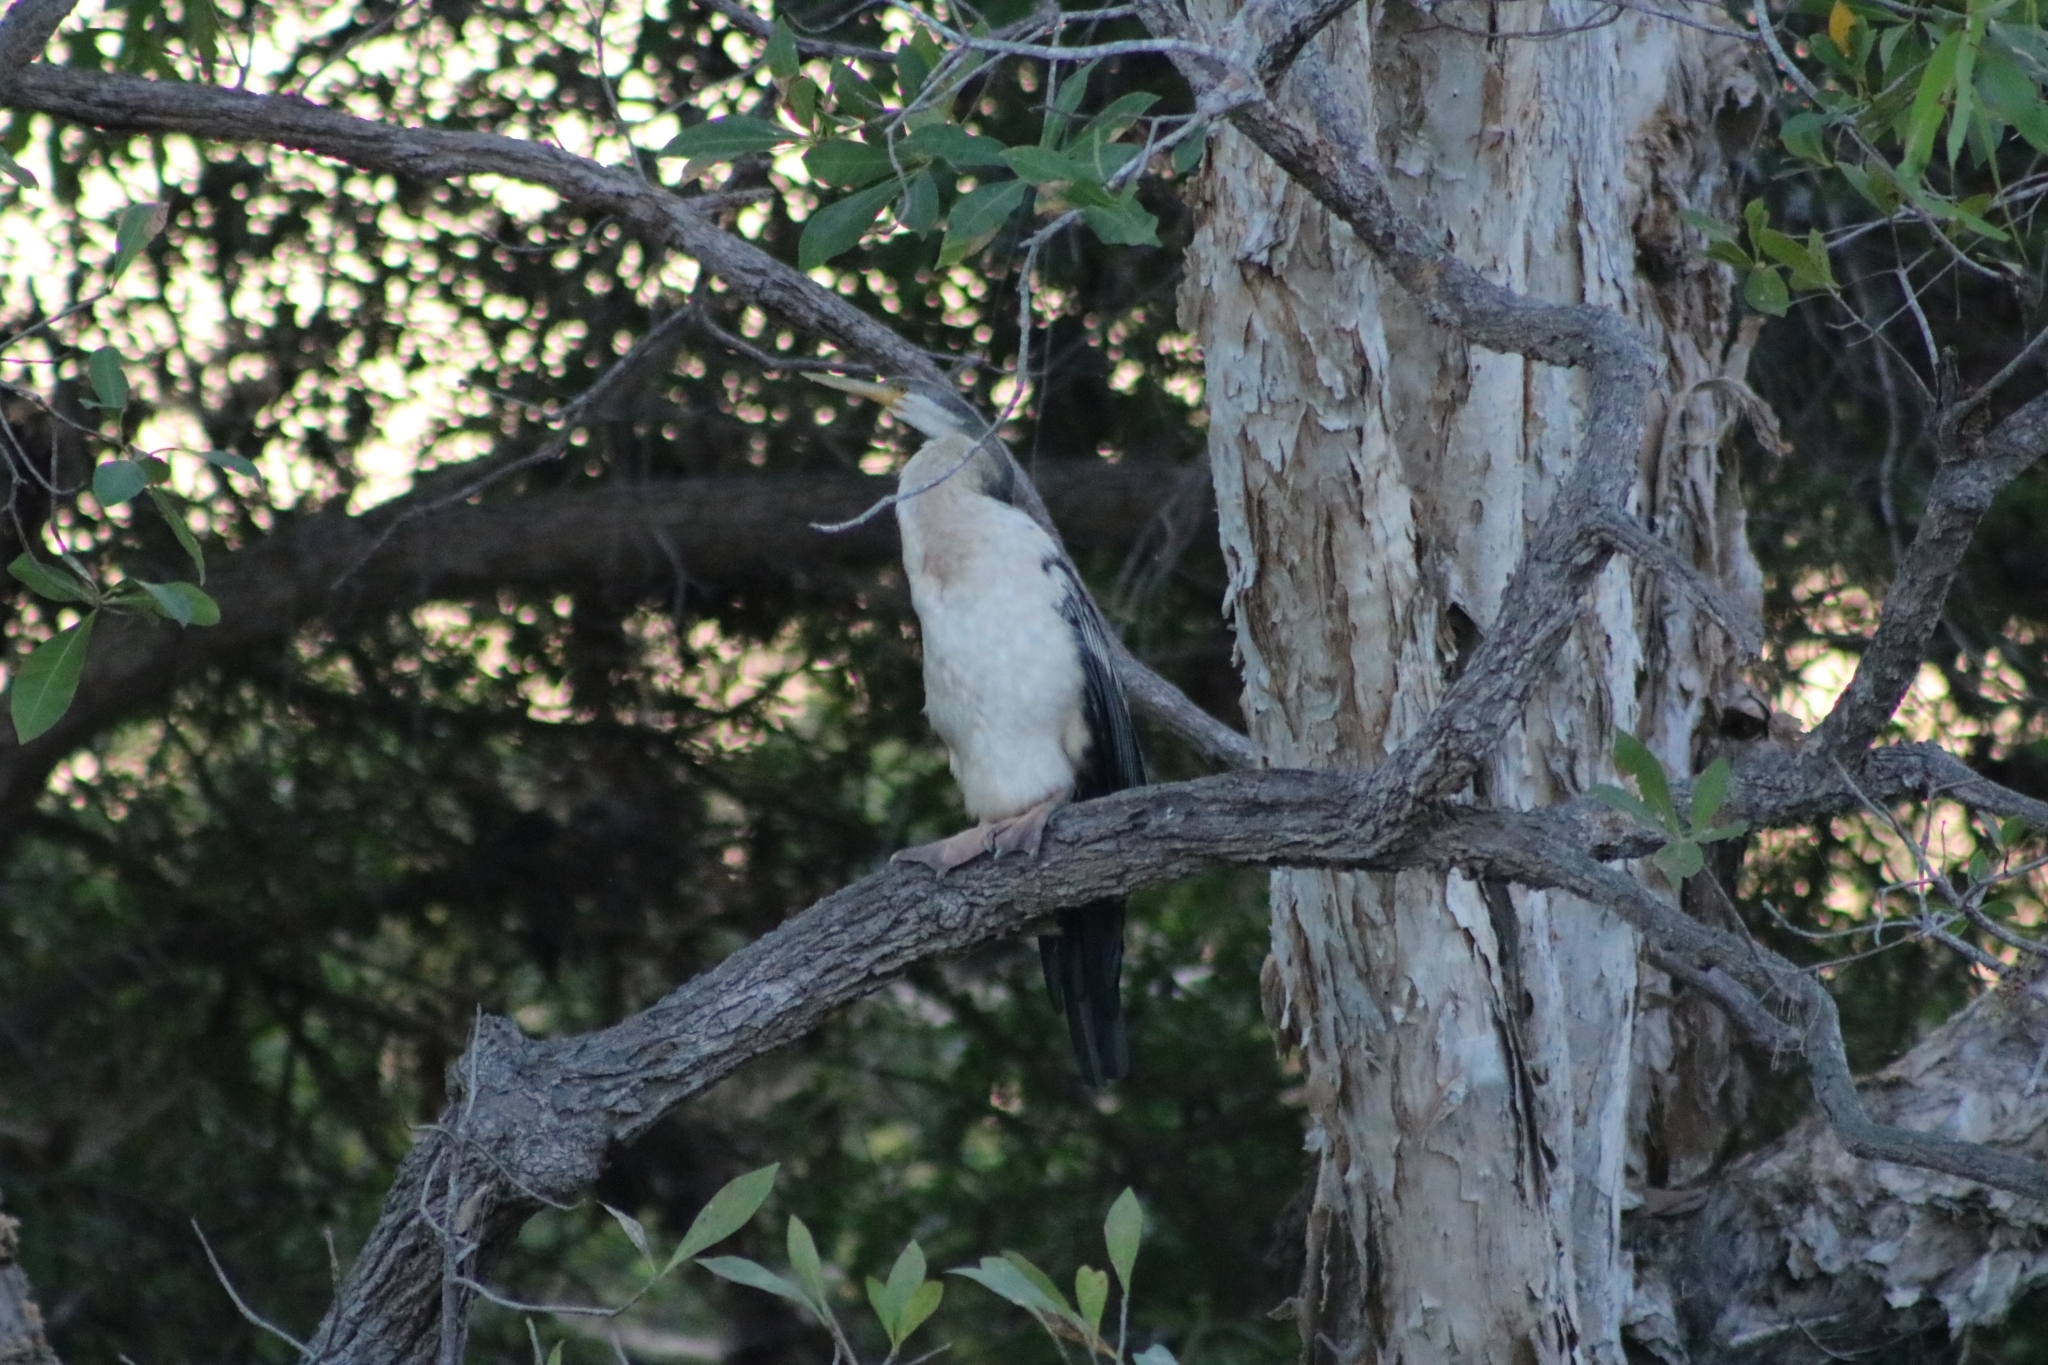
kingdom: Animalia
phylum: Chordata
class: Aves
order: Suliformes
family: Anhingidae
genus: Anhinga
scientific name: Anhinga novaehollandiae
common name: Australasian darter
